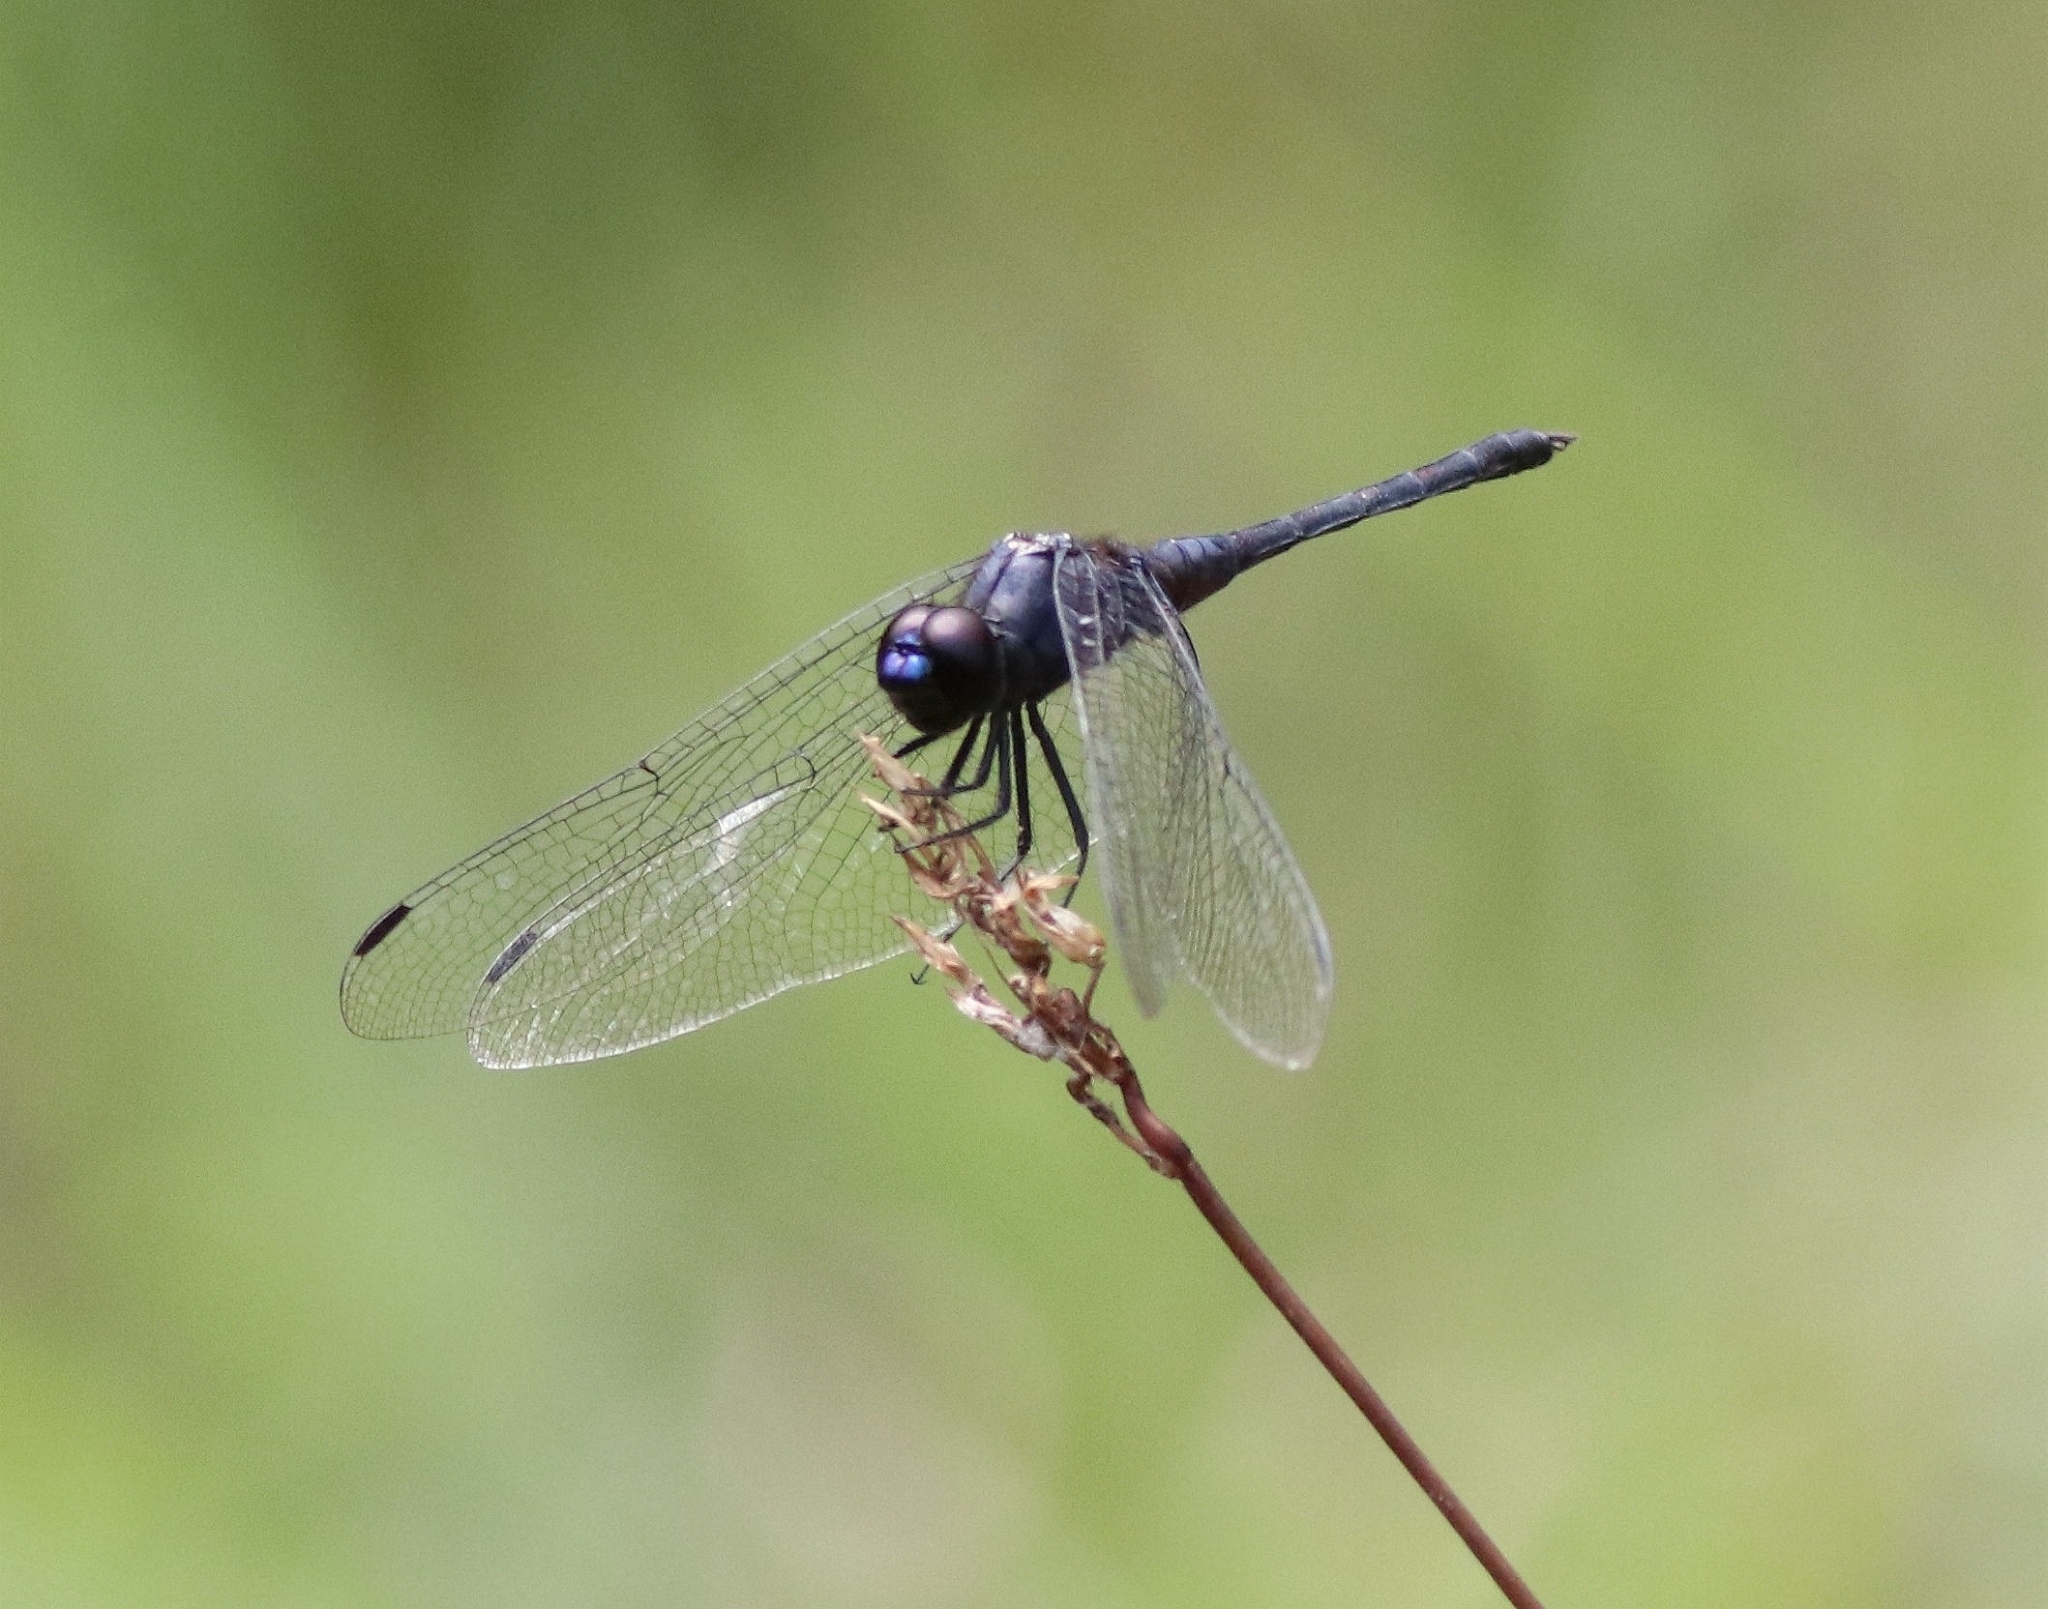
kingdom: Animalia
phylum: Arthropoda
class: Insecta
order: Odonata
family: Libellulidae
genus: Trithemis
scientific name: Trithemis festiva
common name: Indigo dropwing
